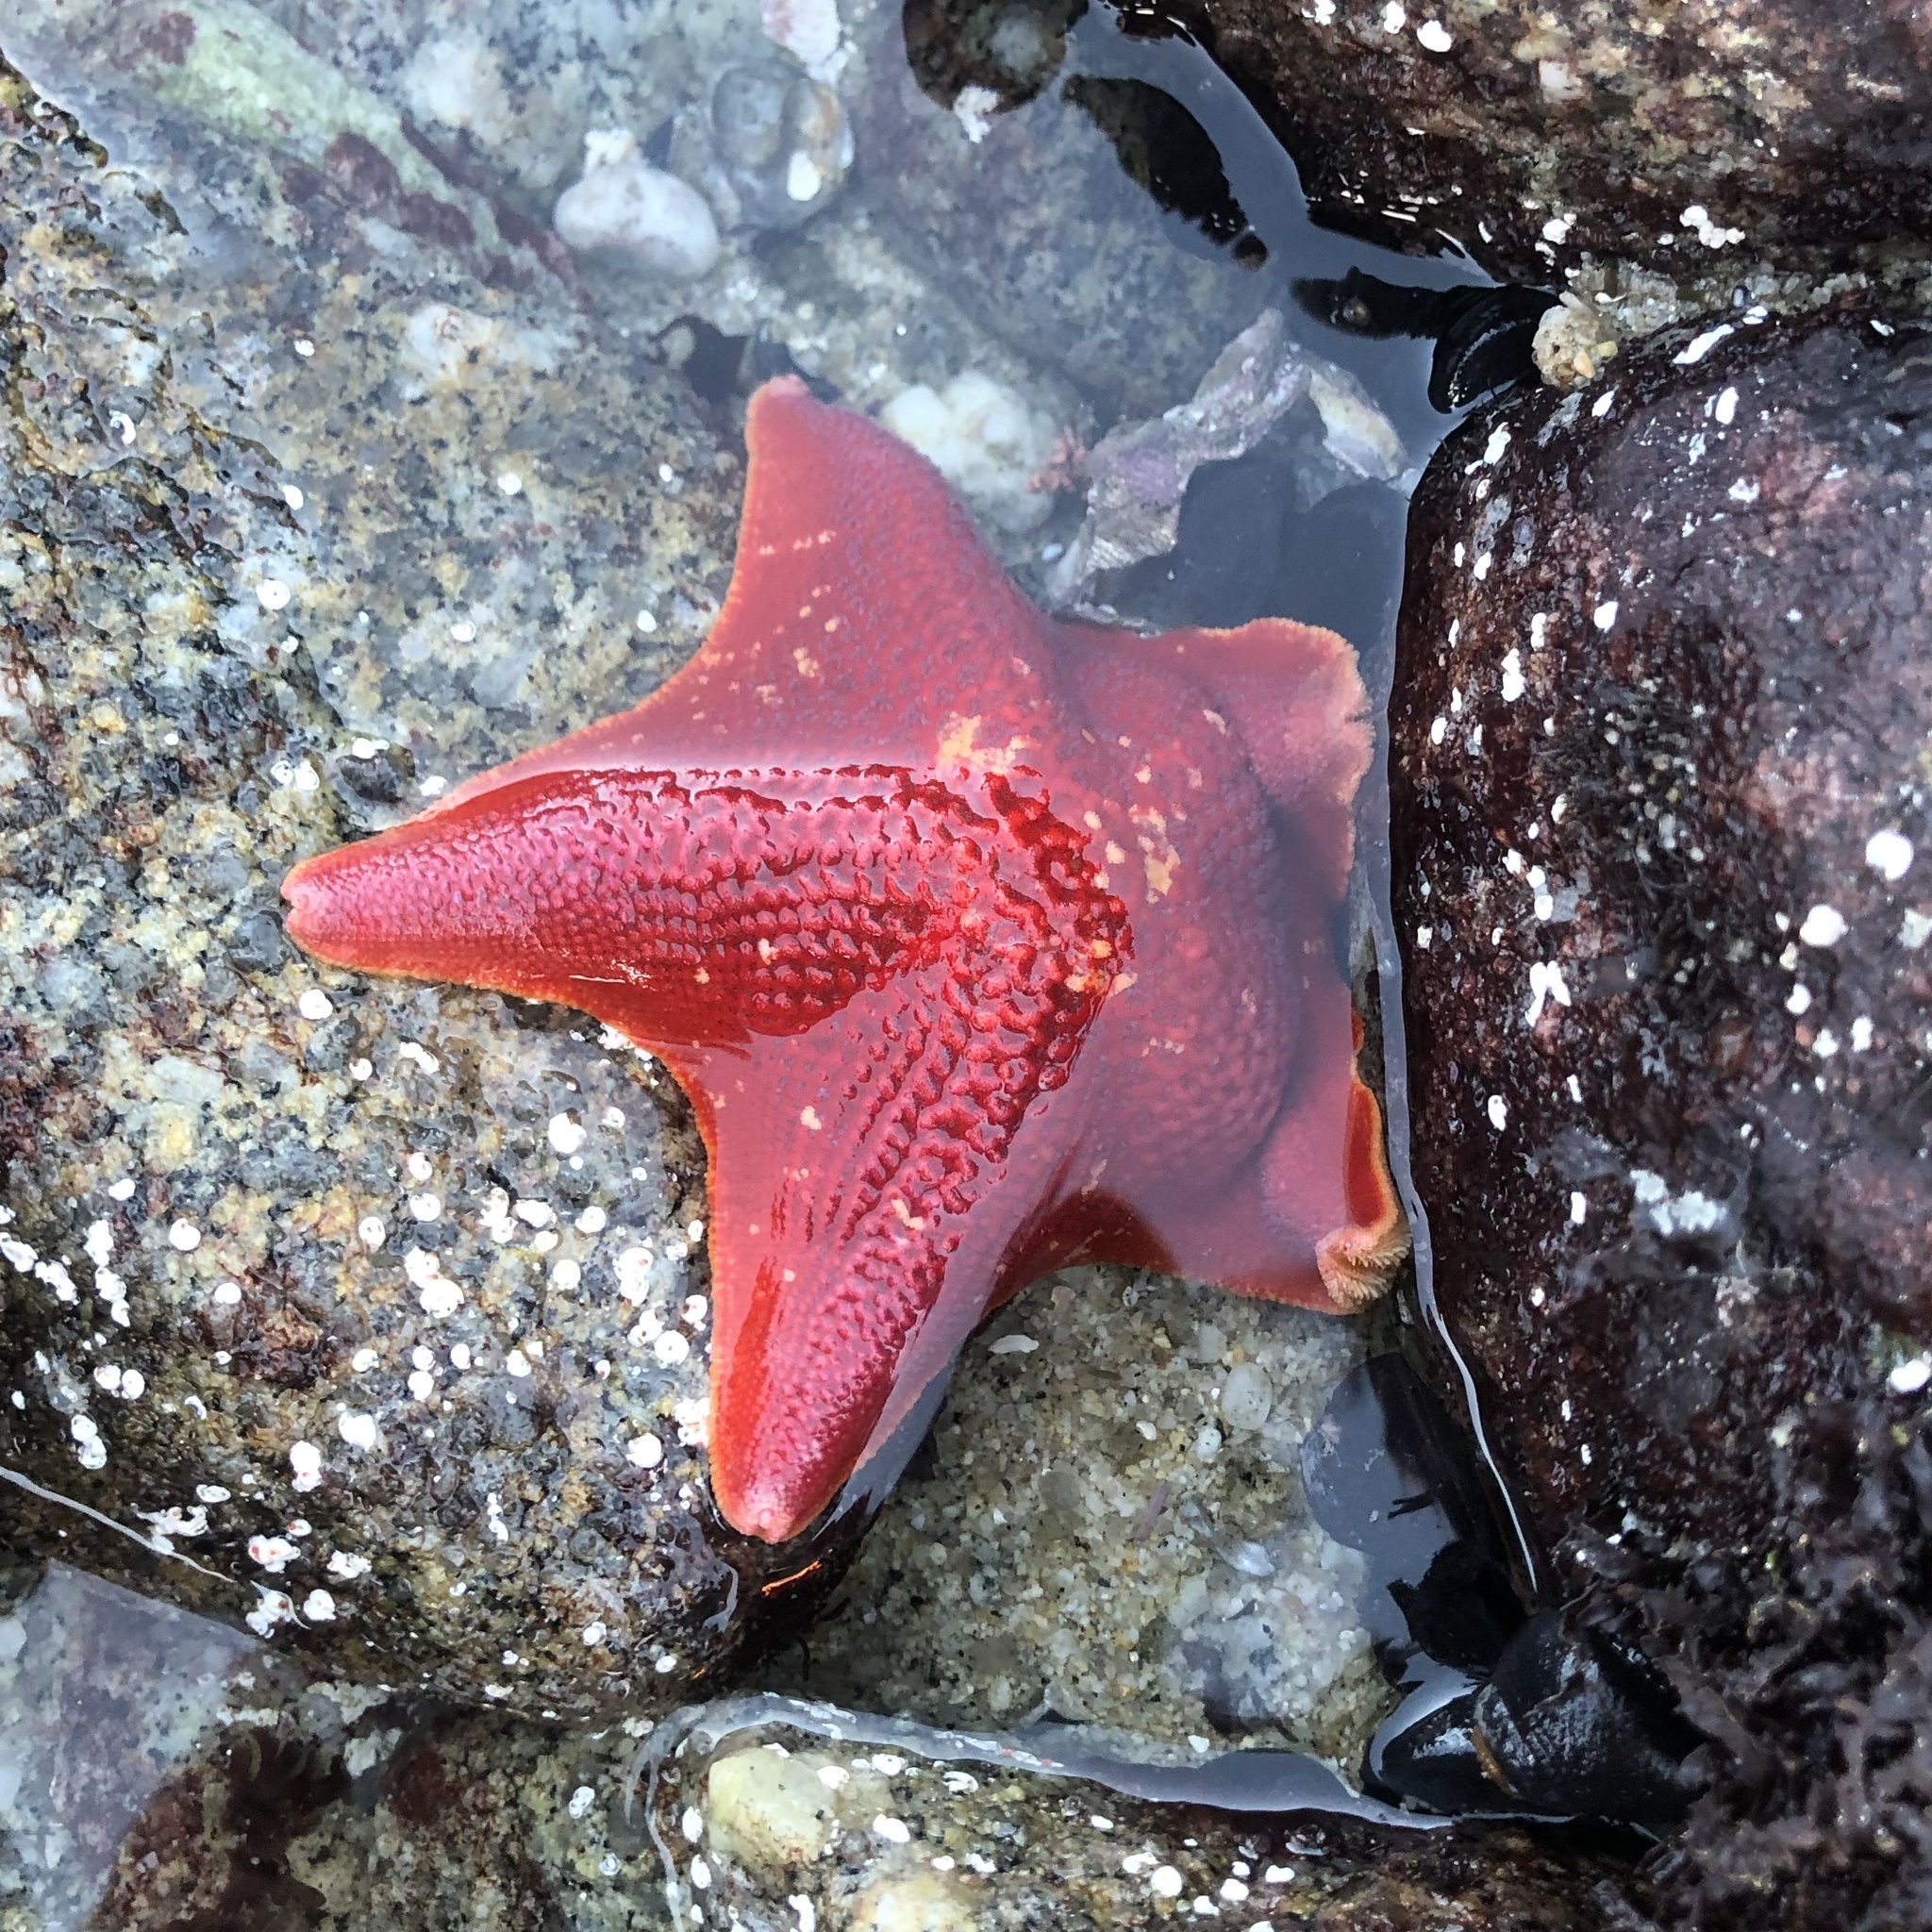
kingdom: Animalia
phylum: Echinodermata
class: Asteroidea
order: Valvatida
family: Asterinidae
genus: Patiria
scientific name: Patiria miniata
